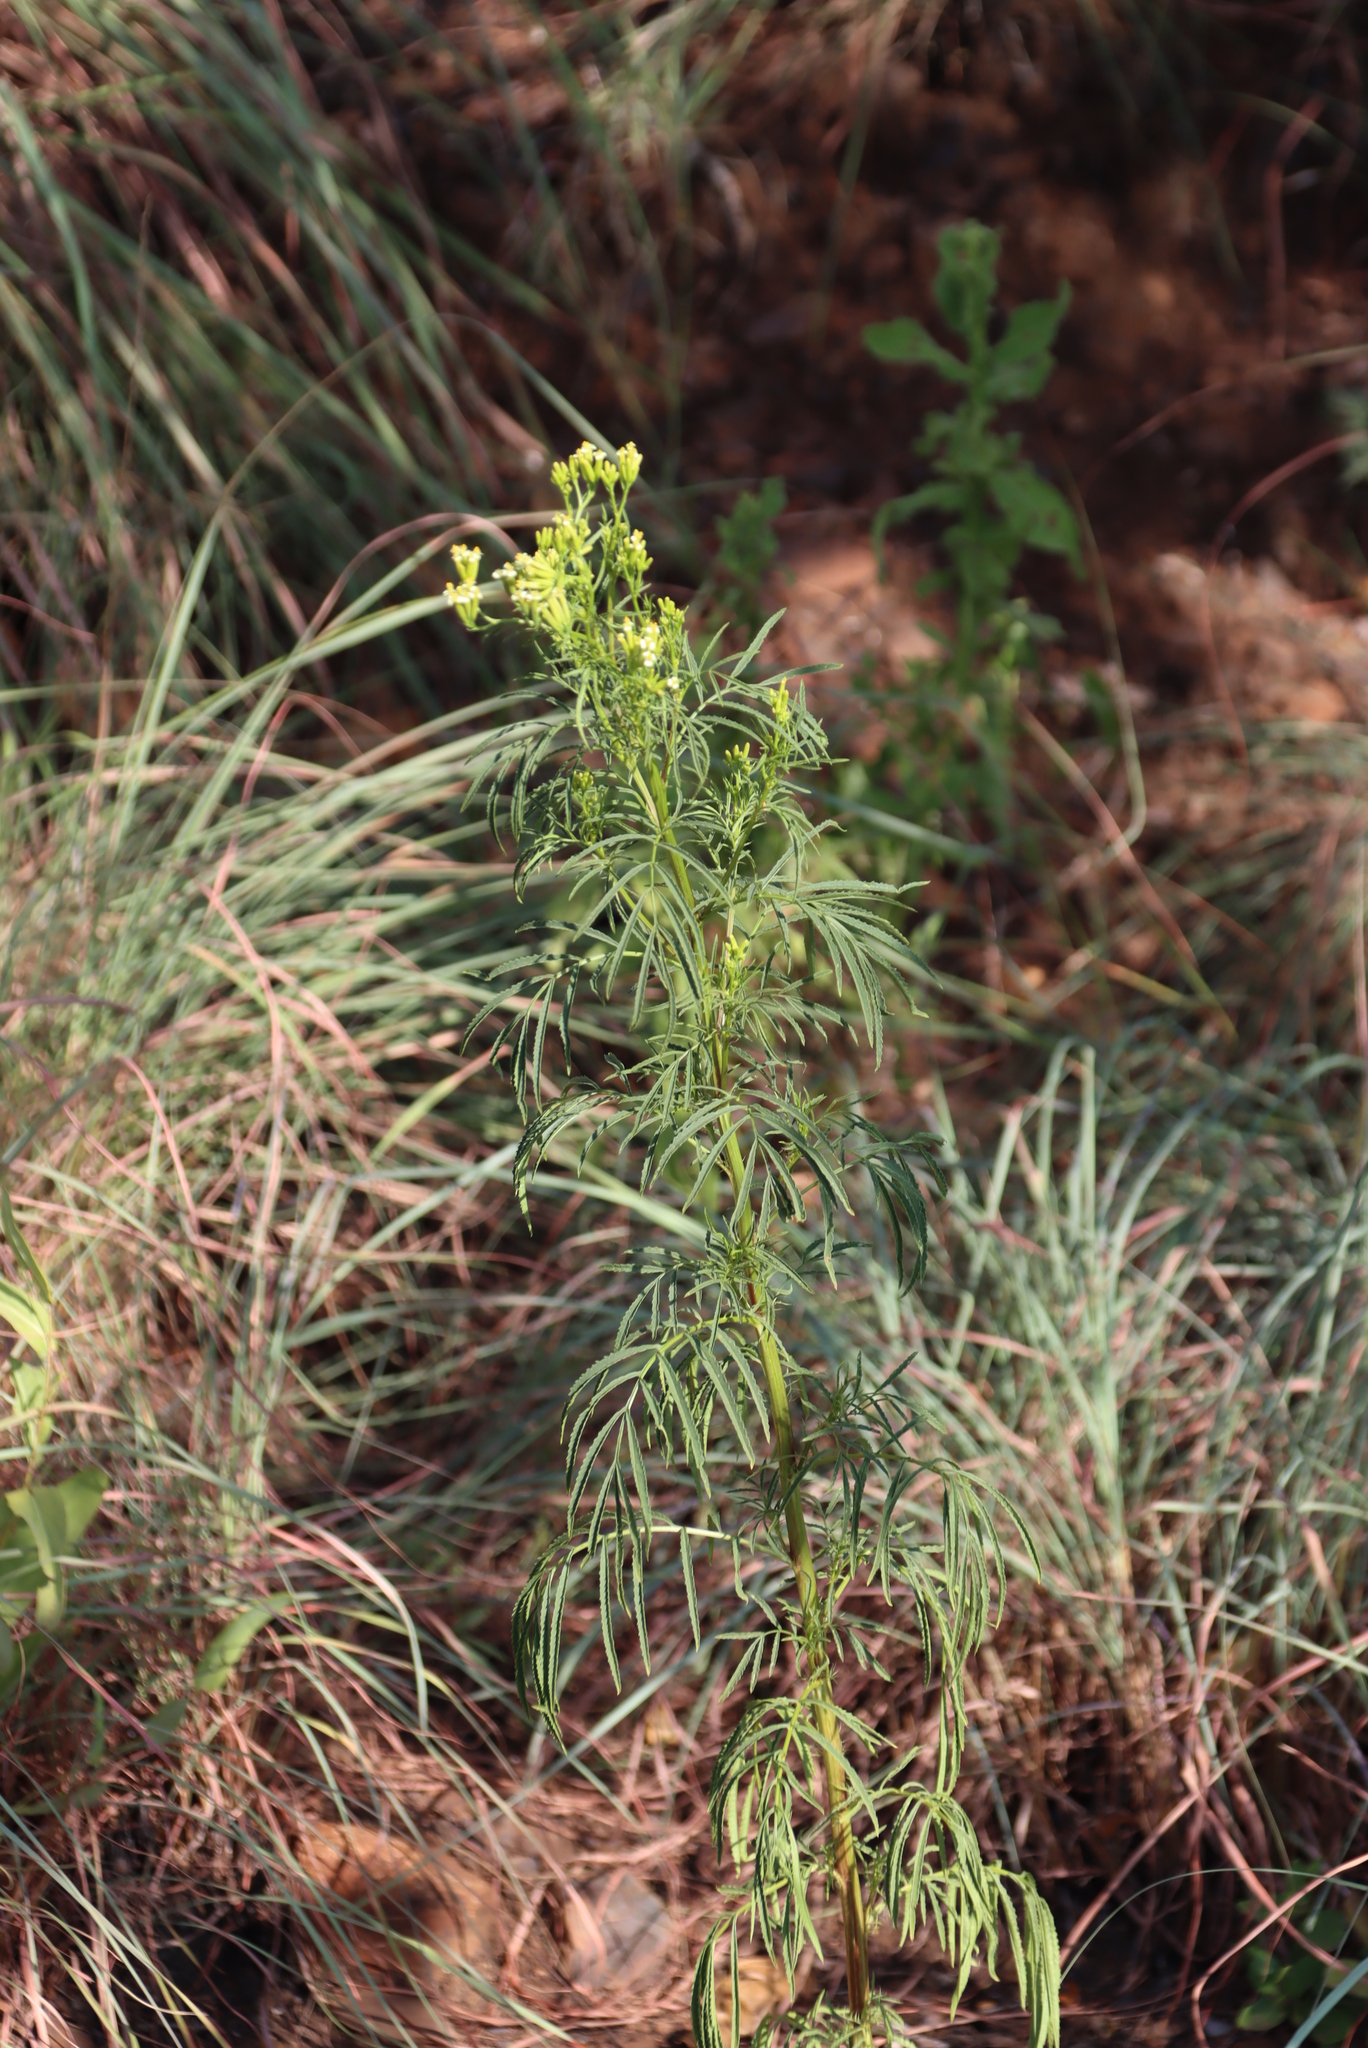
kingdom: Plantae
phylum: Tracheophyta
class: Magnoliopsida
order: Asterales
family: Asteraceae
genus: Tagetes
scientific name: Tagetes minuta
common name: Muster john henry
